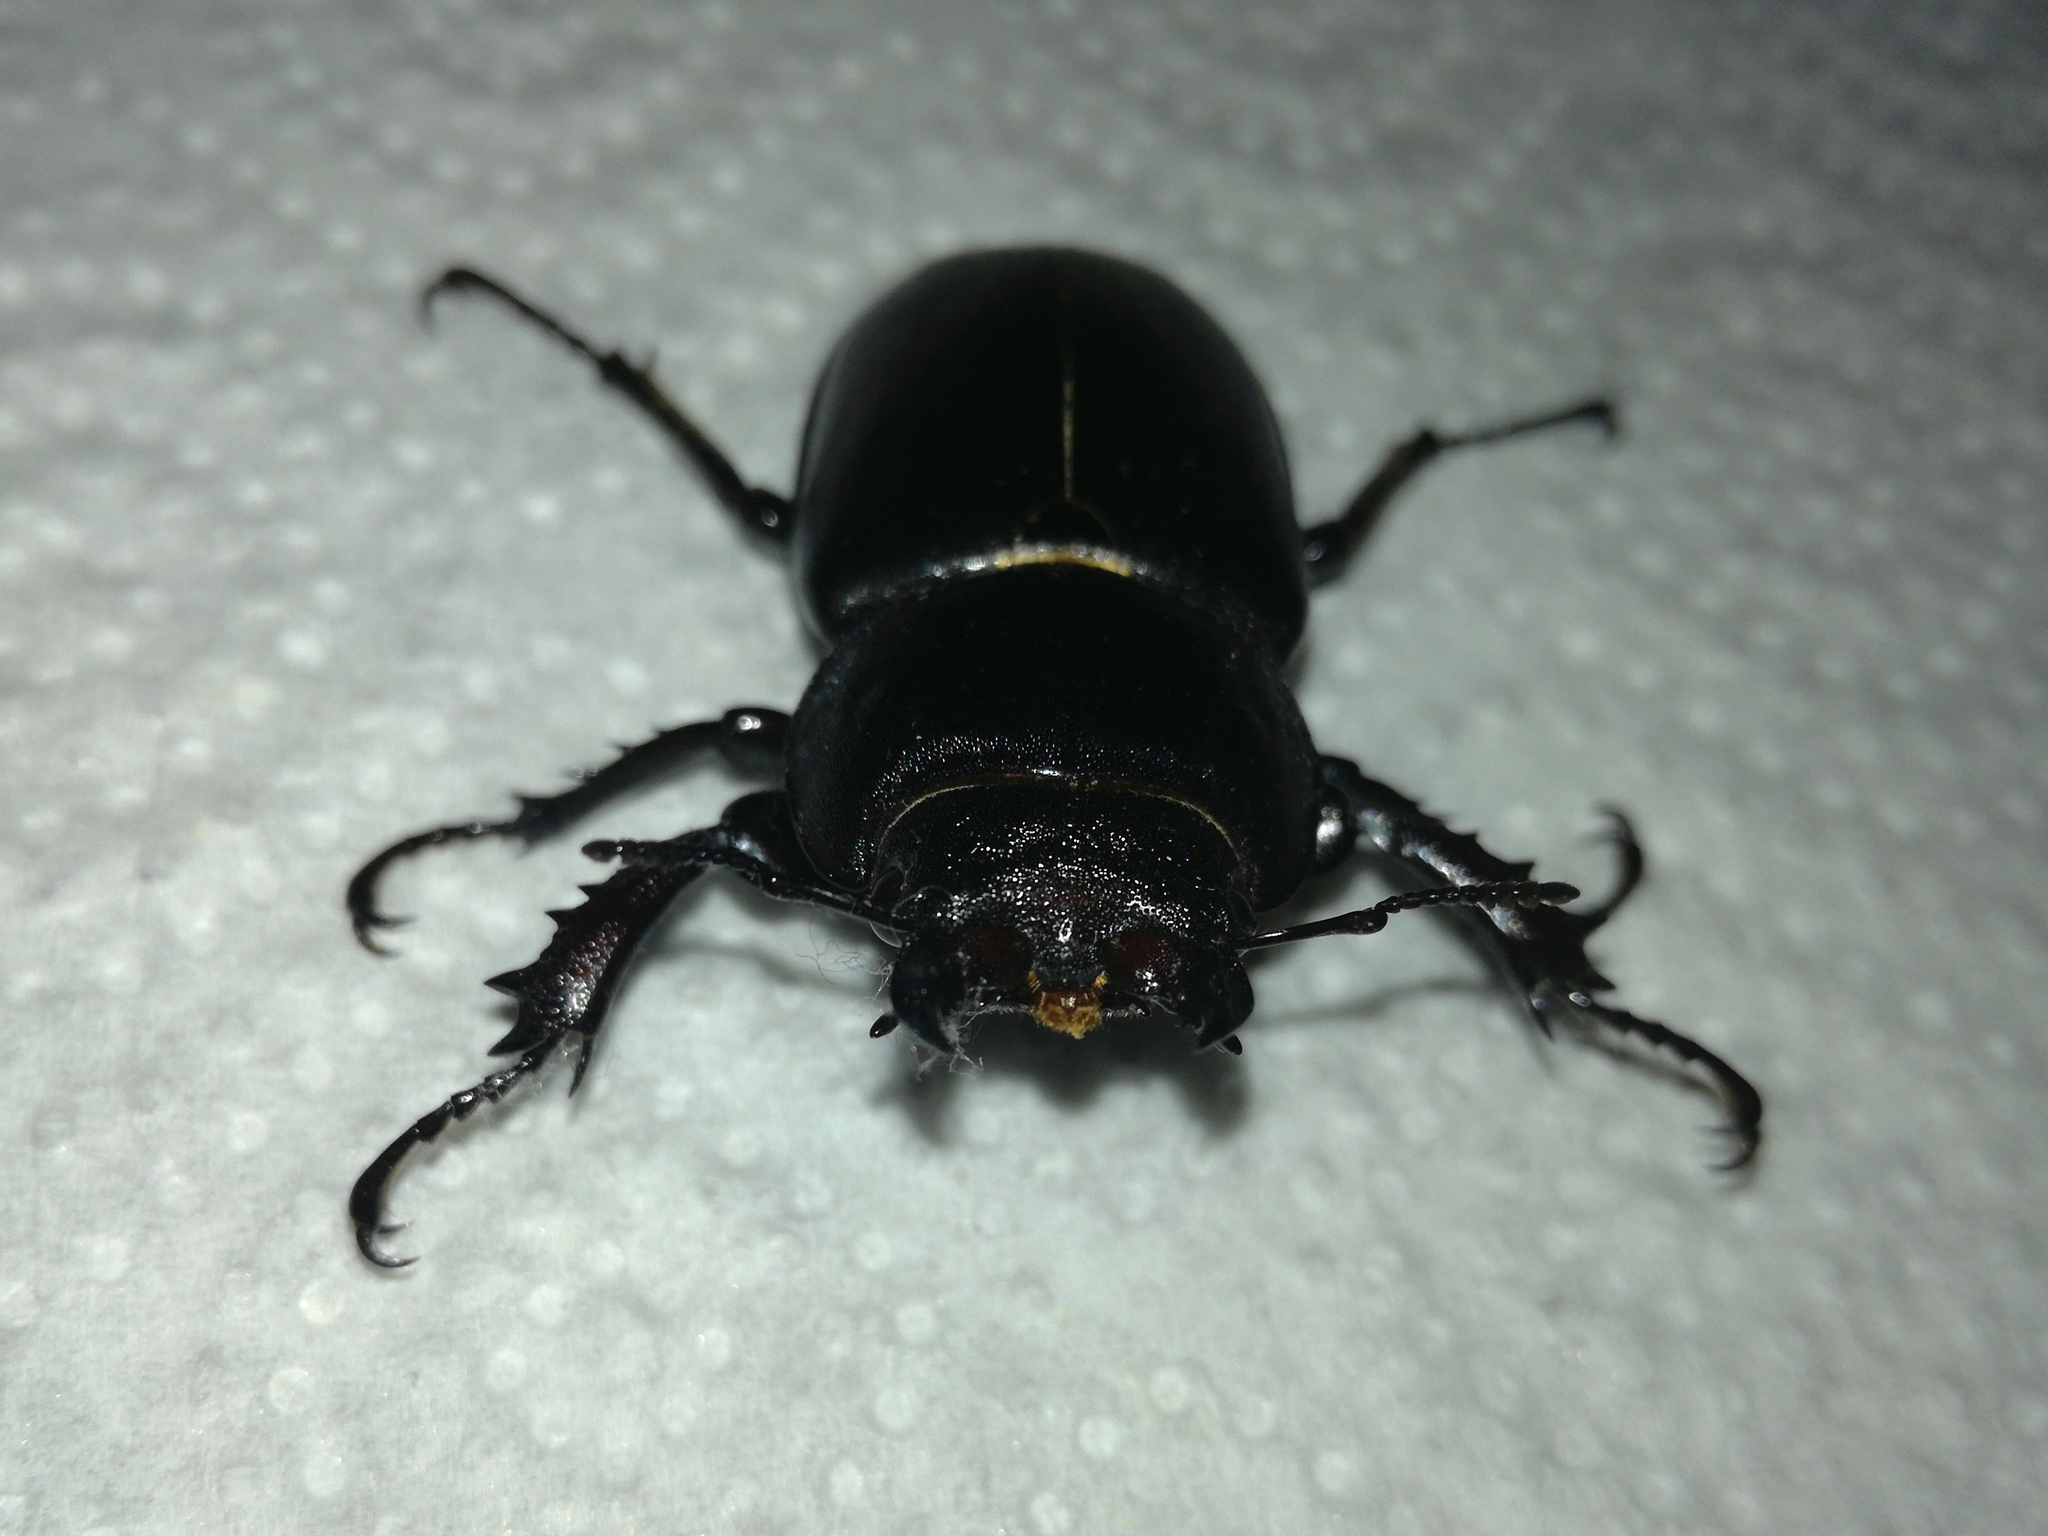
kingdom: Animalia
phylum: Arthropoda
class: Insecta
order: Coleoptera
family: Lucanidae
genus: Lucanus
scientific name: Lucanus cervus
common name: Stag beetle
